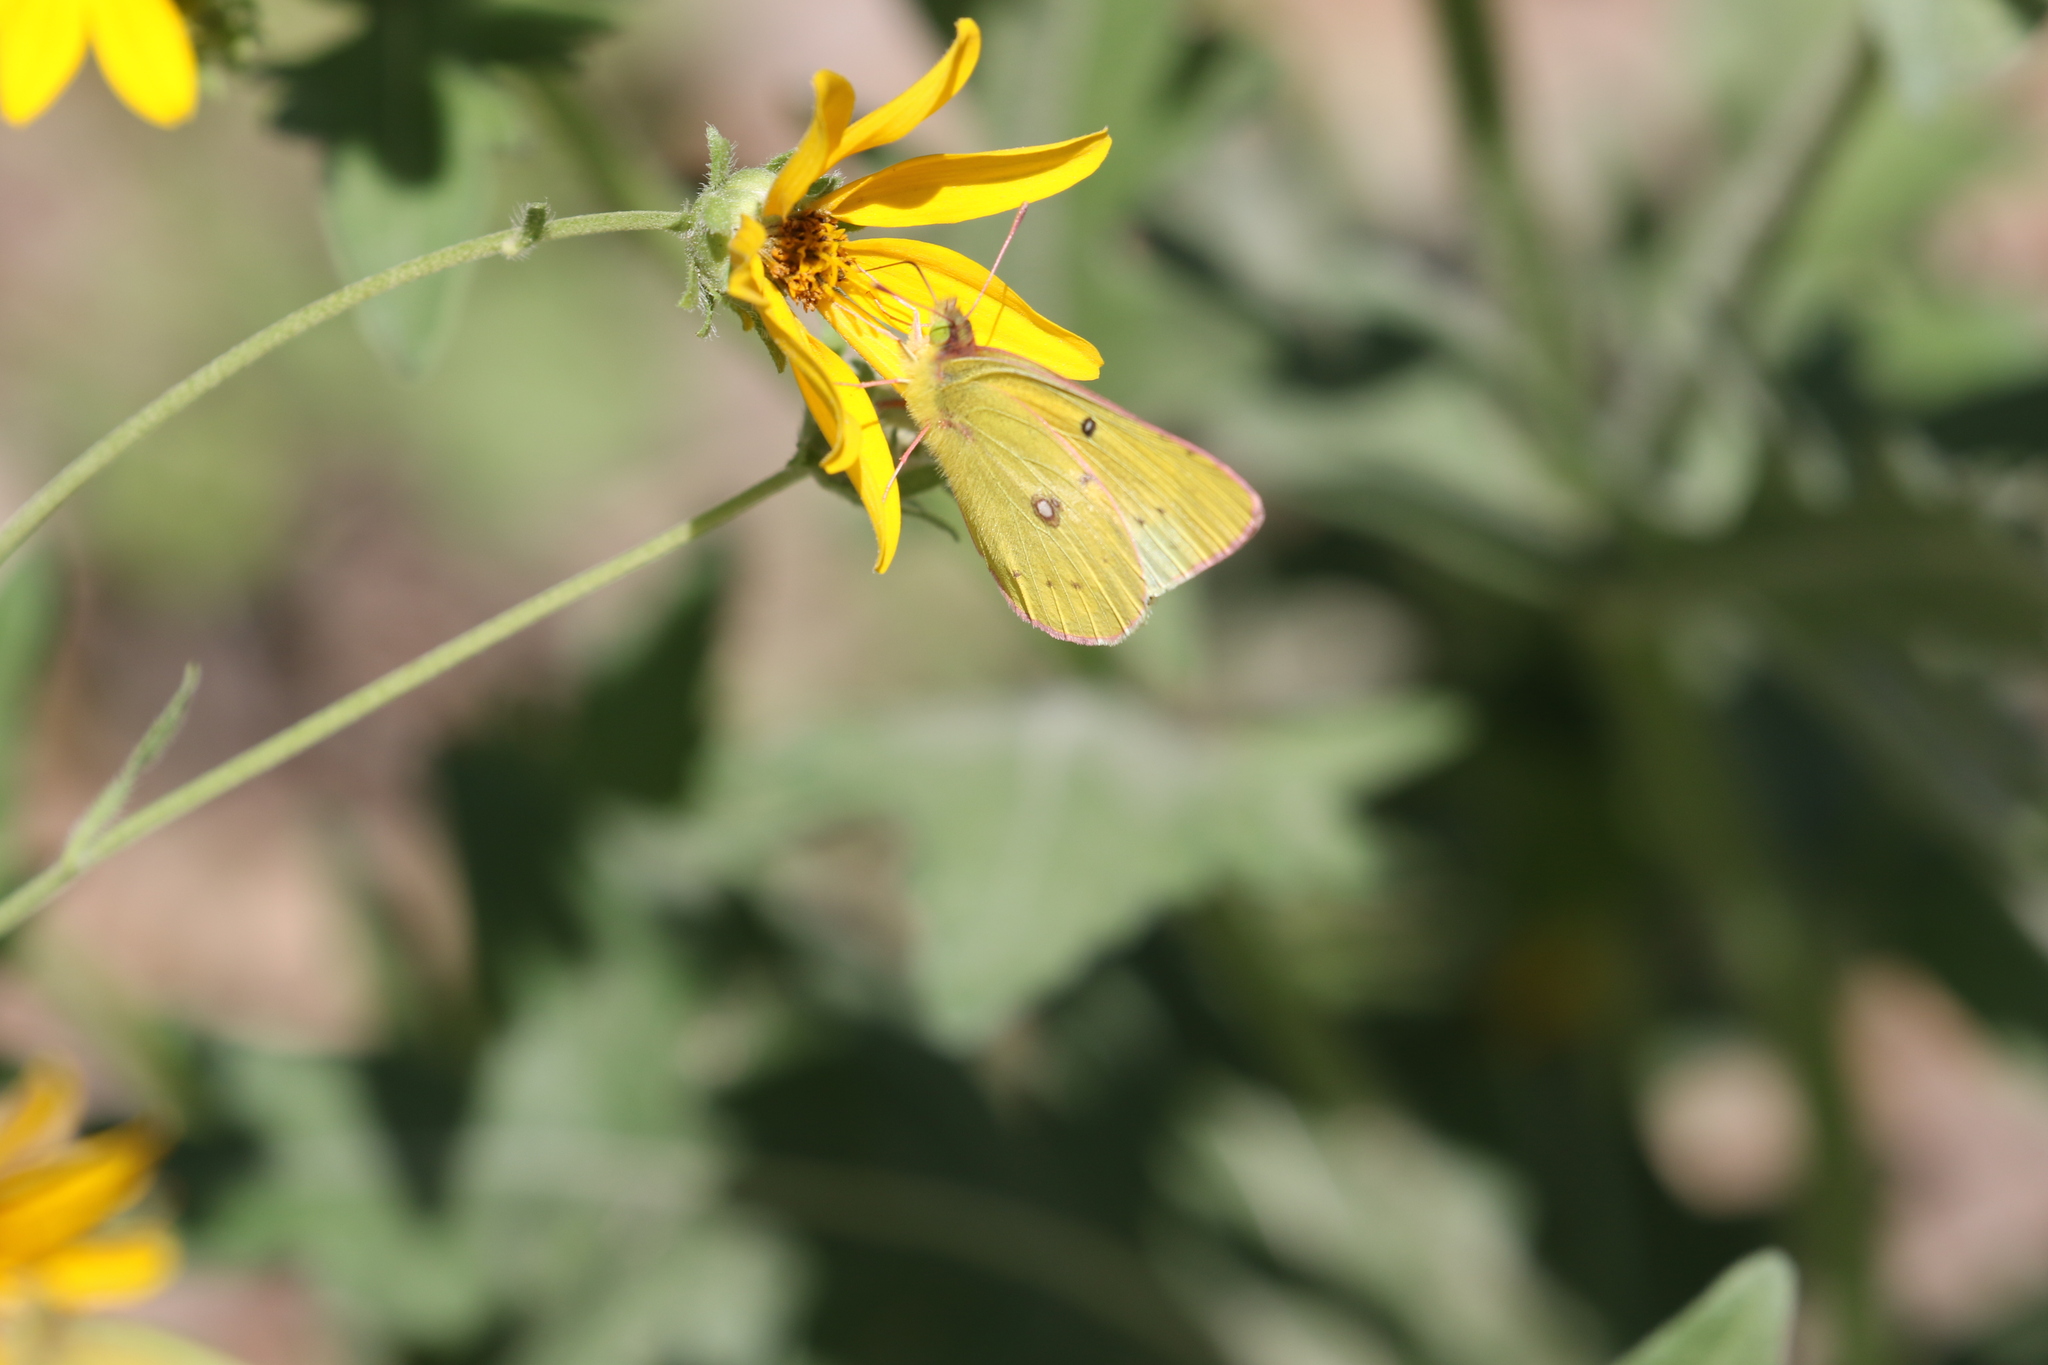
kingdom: Animalia
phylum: Arthropoda
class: Insecta
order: Lepidoptera
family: Pieridae
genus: Colias
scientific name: Colias eurytheme
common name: Alfalfa butterfly
